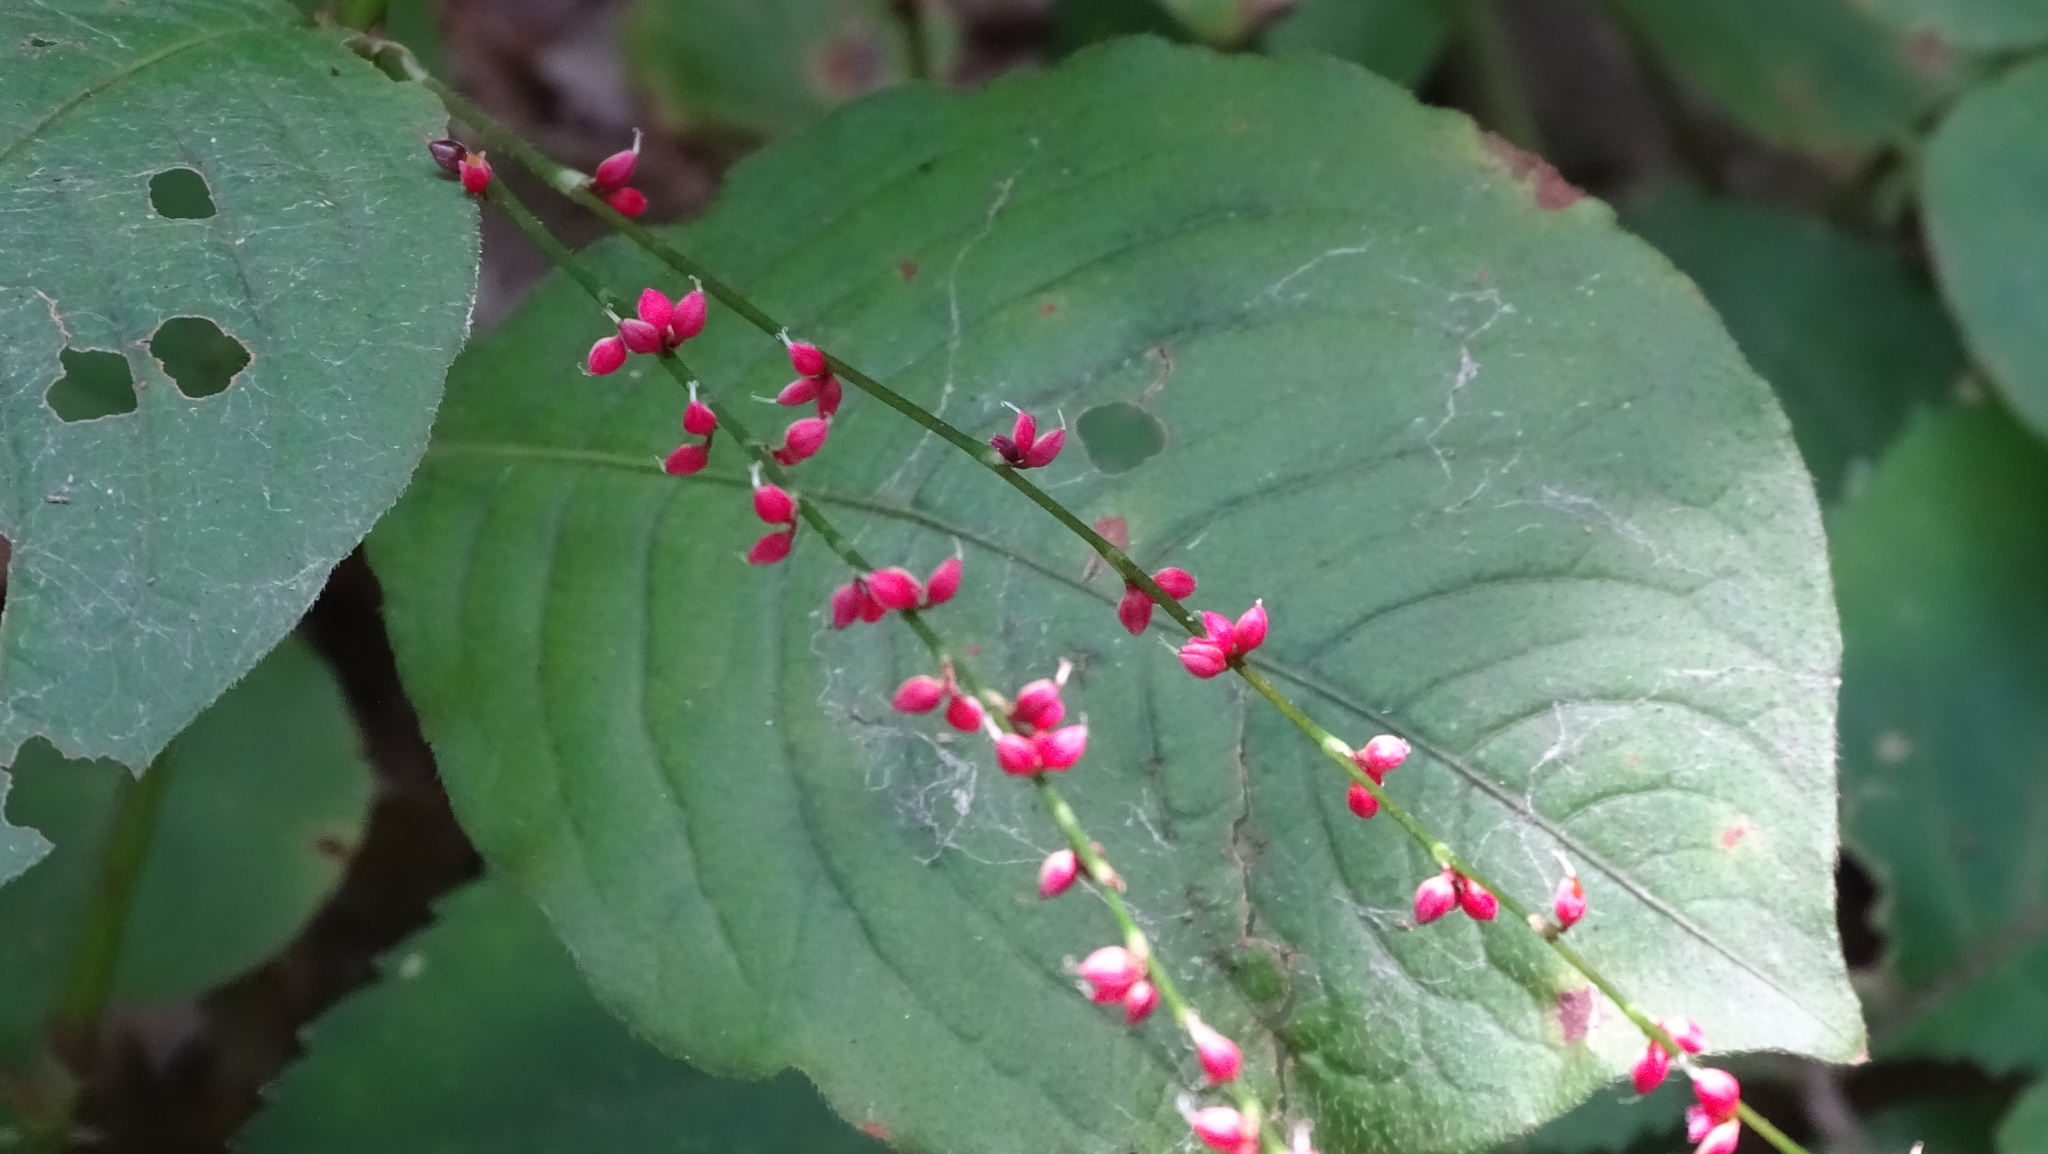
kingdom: Plantae
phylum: Tracheophyta
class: Magnoliopsida
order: Caryophyllales
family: Polygonaceae
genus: Persicaria
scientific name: Persicaria filiformis
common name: Asian jumpseed
